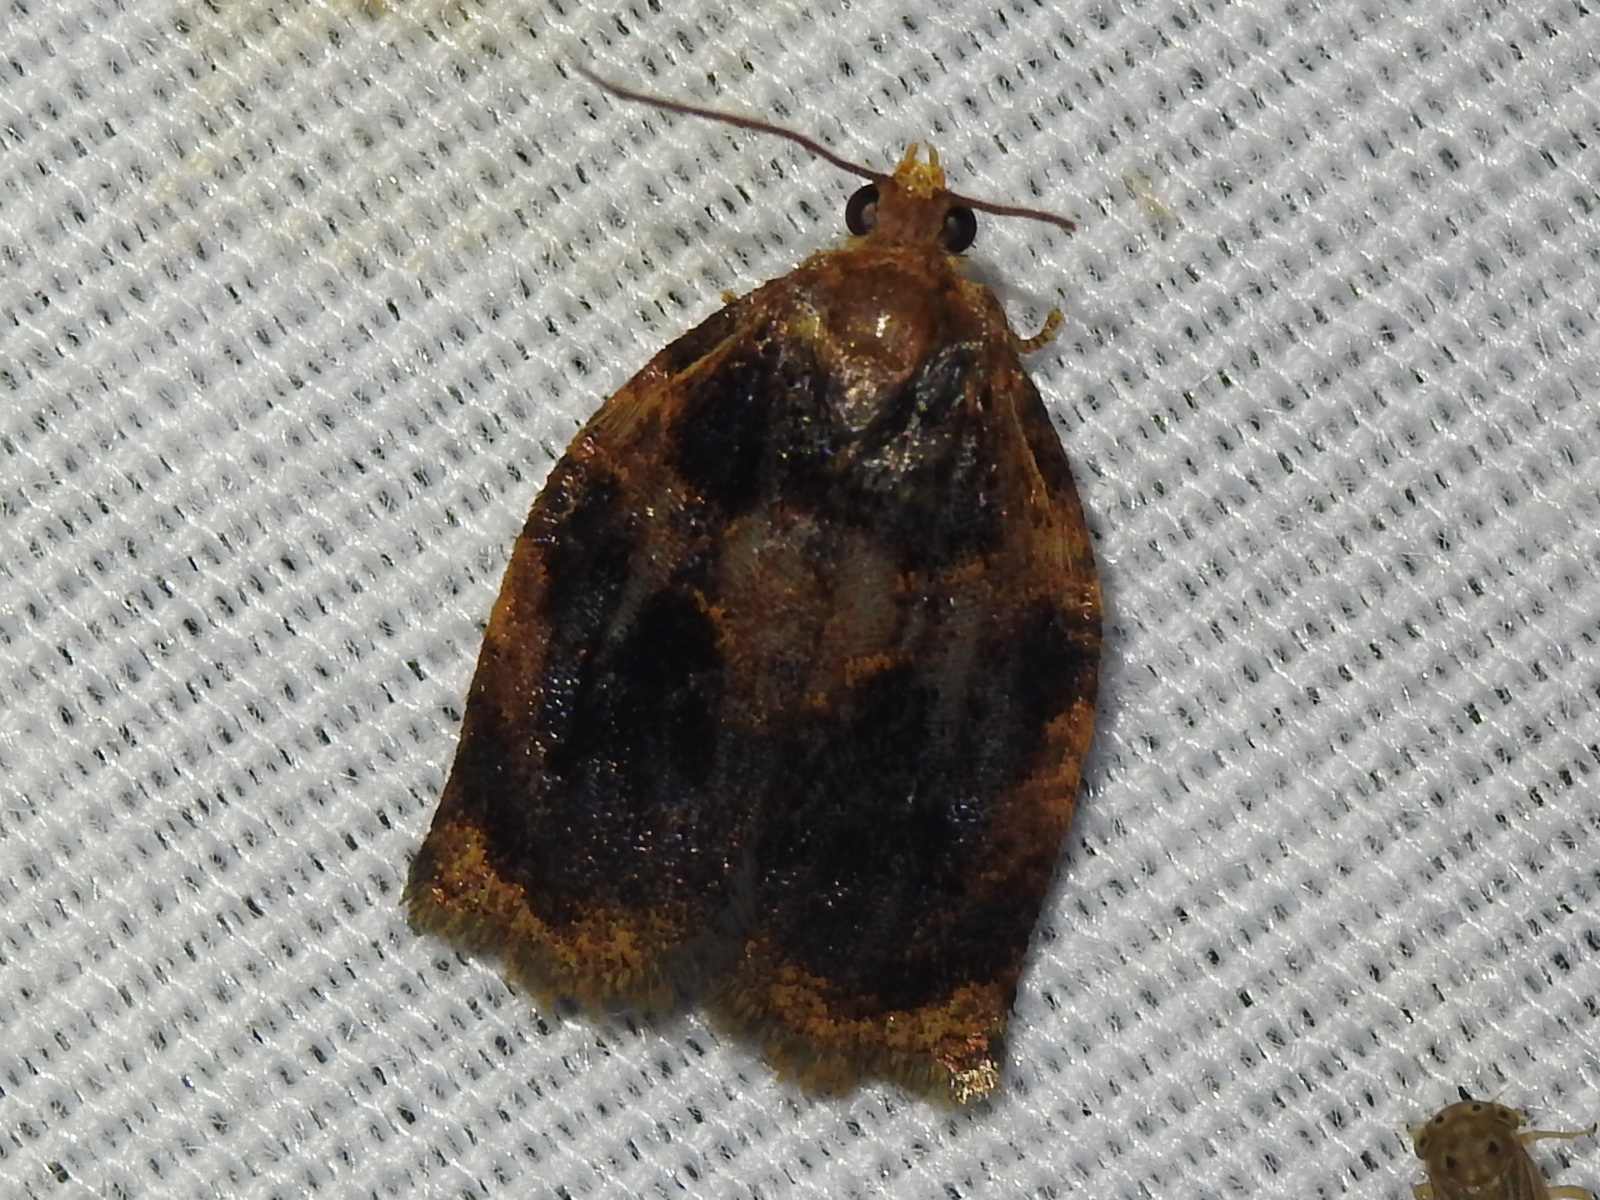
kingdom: Animalia
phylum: Arthropoda
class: Insecta
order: Lepidoptera
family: Tortricidae
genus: Archips
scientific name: Archips infumatana
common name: Smoked leafroller moth
